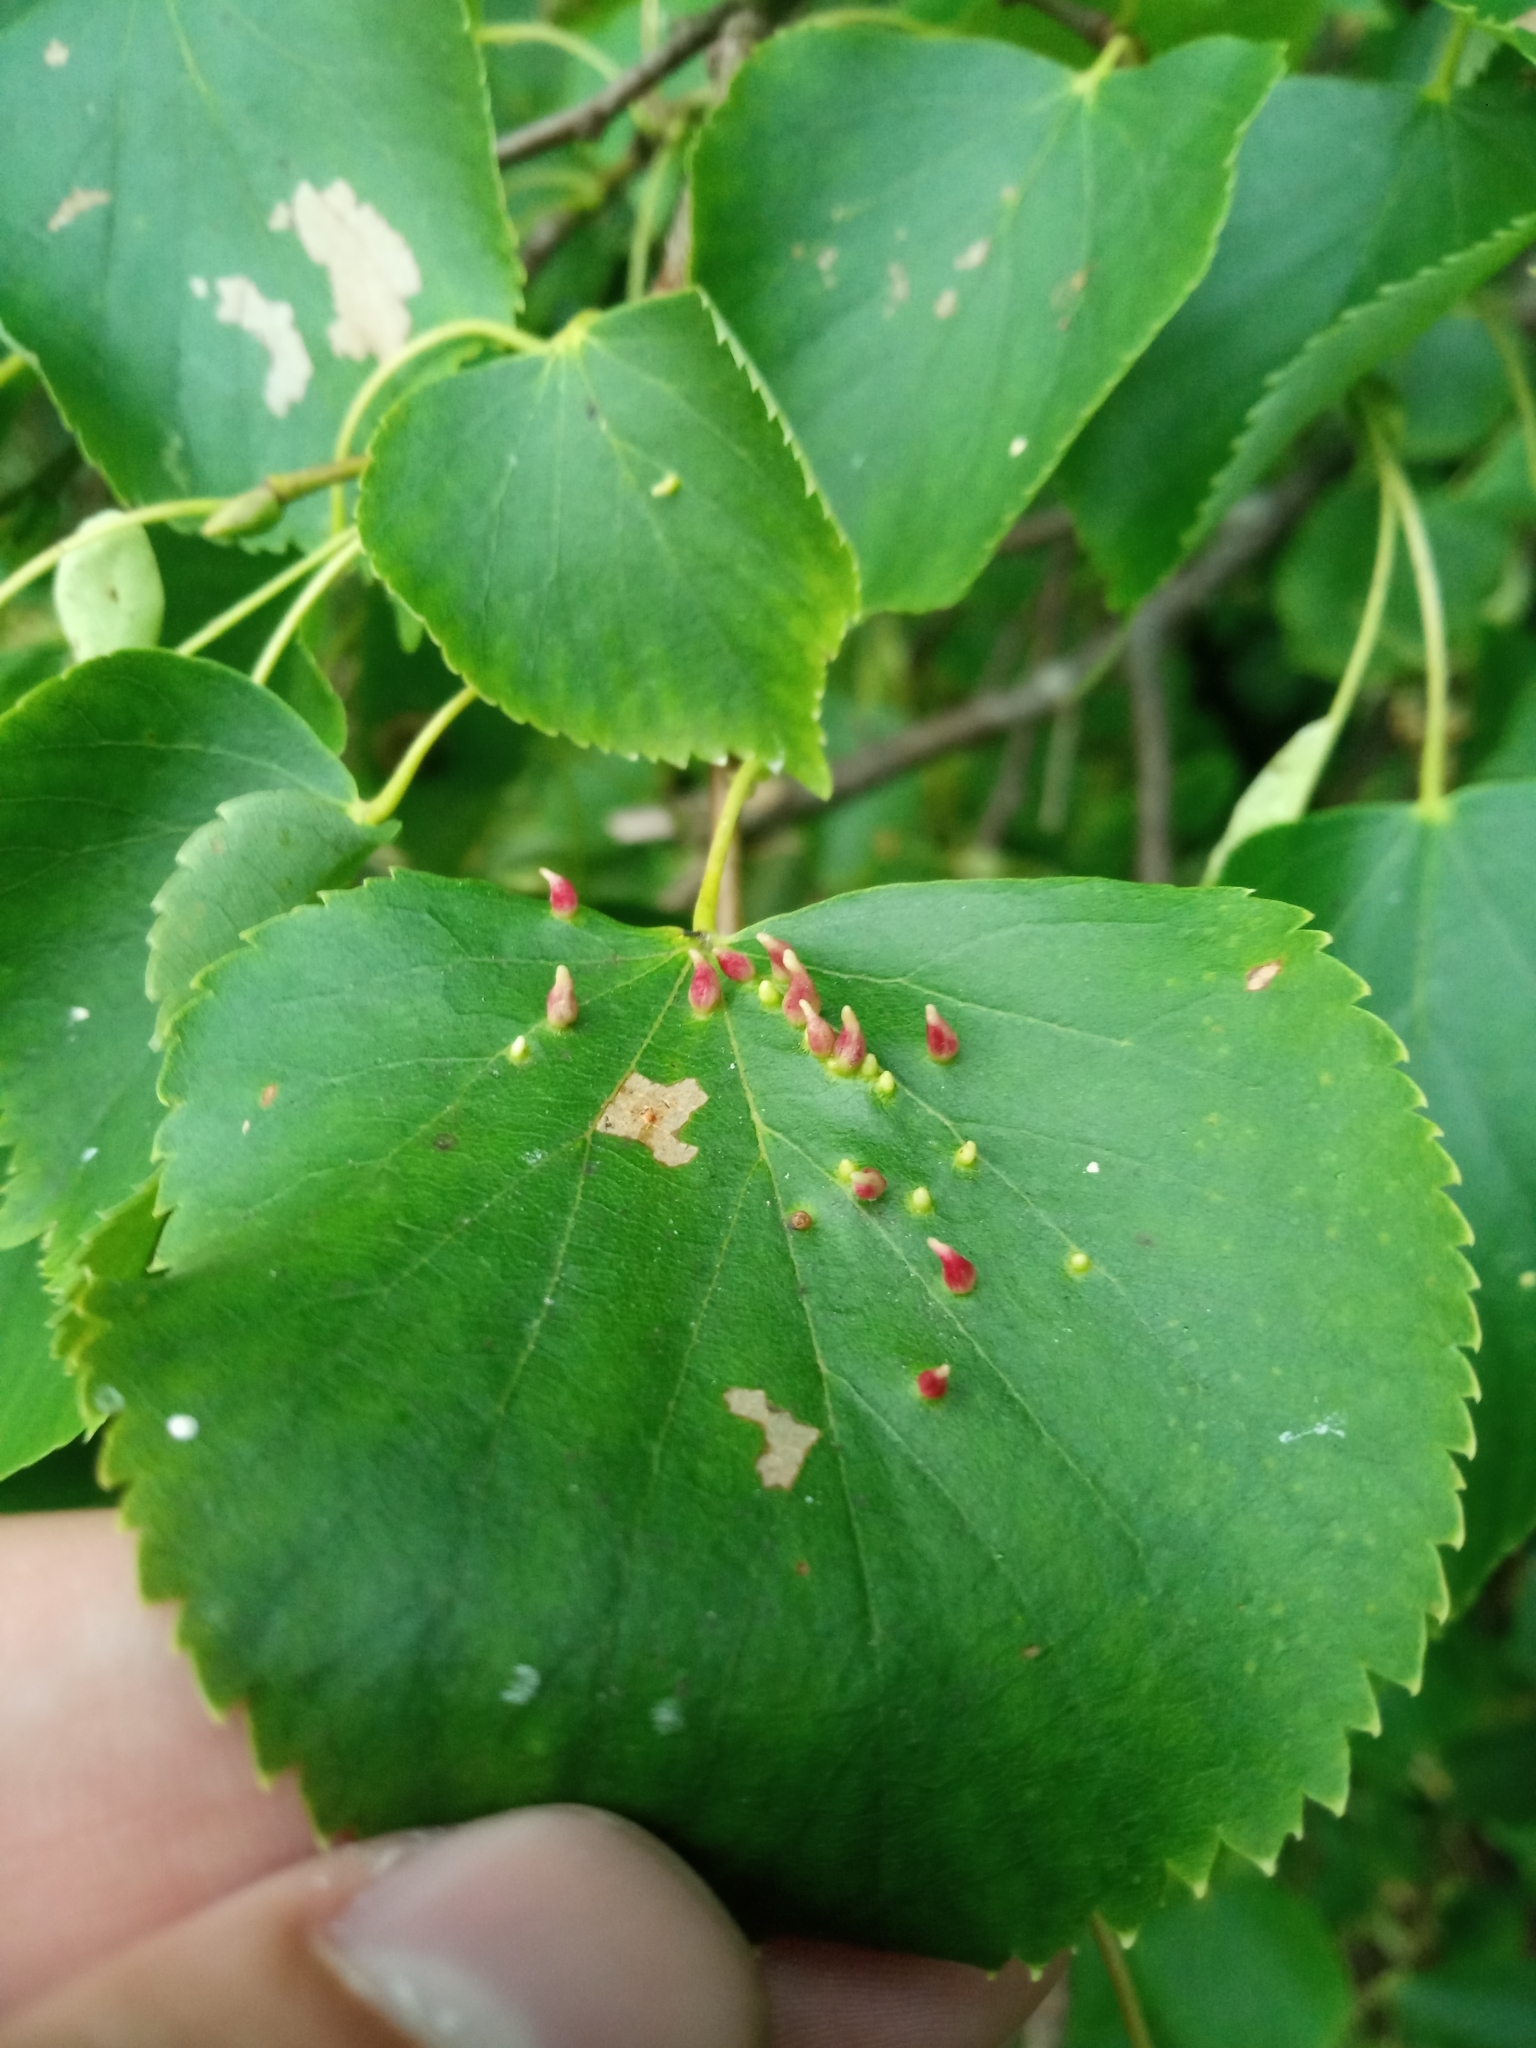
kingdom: Animalia
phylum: Arthropoda
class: Arachnida
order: Trombidiformes
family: Eriophyidae
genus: Eriophyes
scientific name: Eriophyes tiliae
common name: Red nail gall mite
